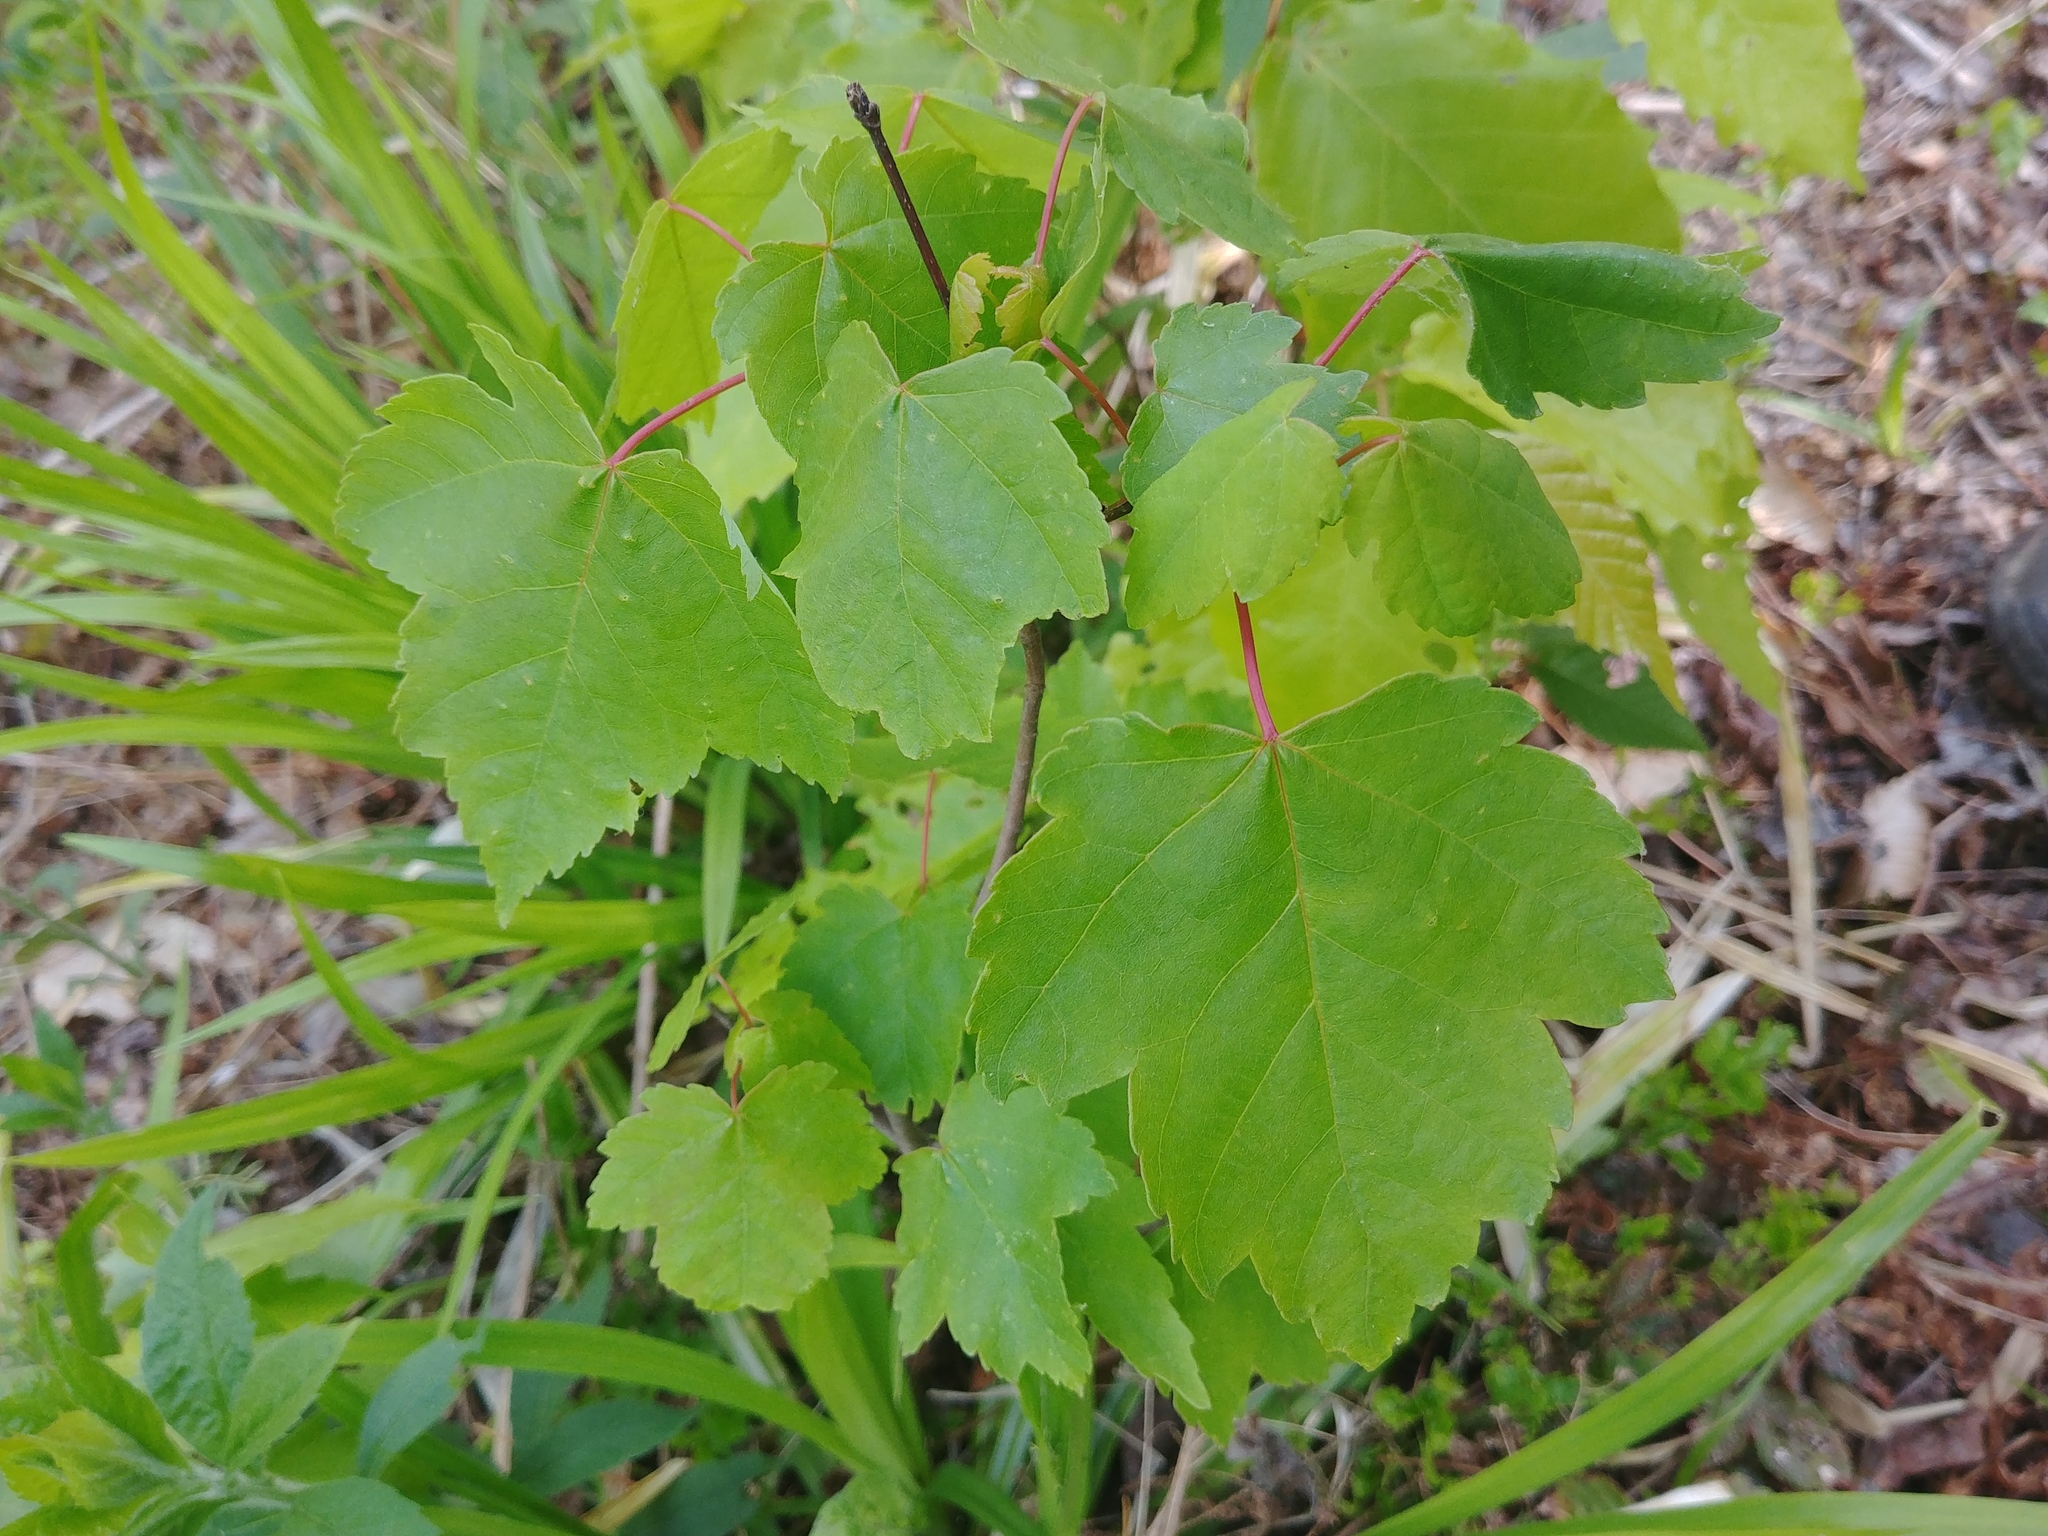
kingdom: Plantae
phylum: Tracheophyta
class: Magnoliopsida
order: Sapindales
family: Sapindaceae
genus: Acer
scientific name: Acer rubrum
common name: Red maple
